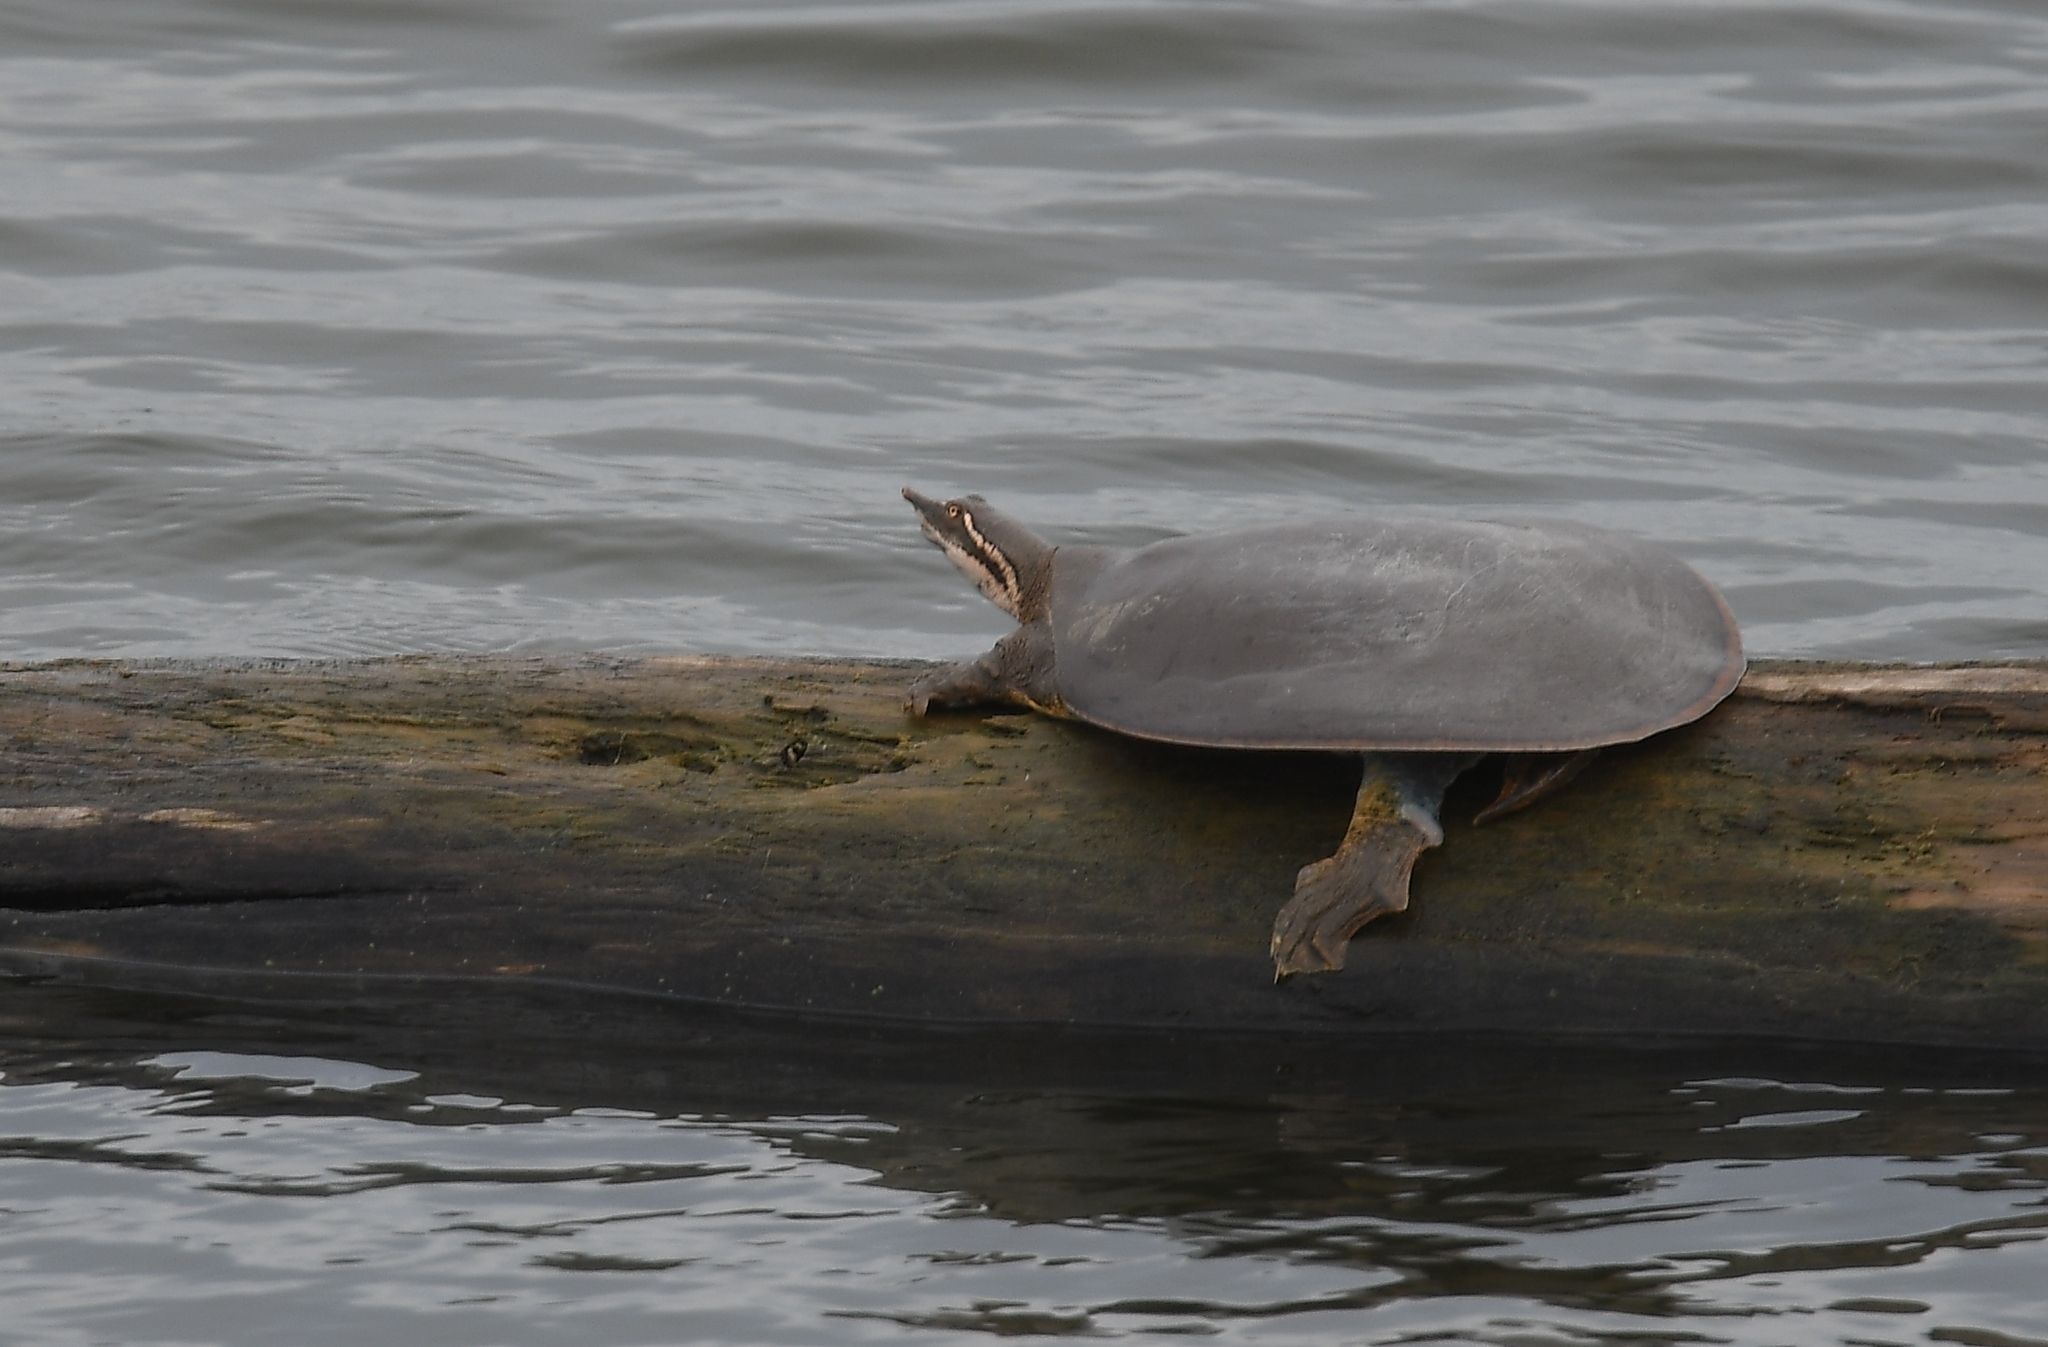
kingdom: Animalia
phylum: Chordata
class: Testudines
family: Trionychidae
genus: Apalone
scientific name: Apalone mutica
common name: Smooth softshell turtle
